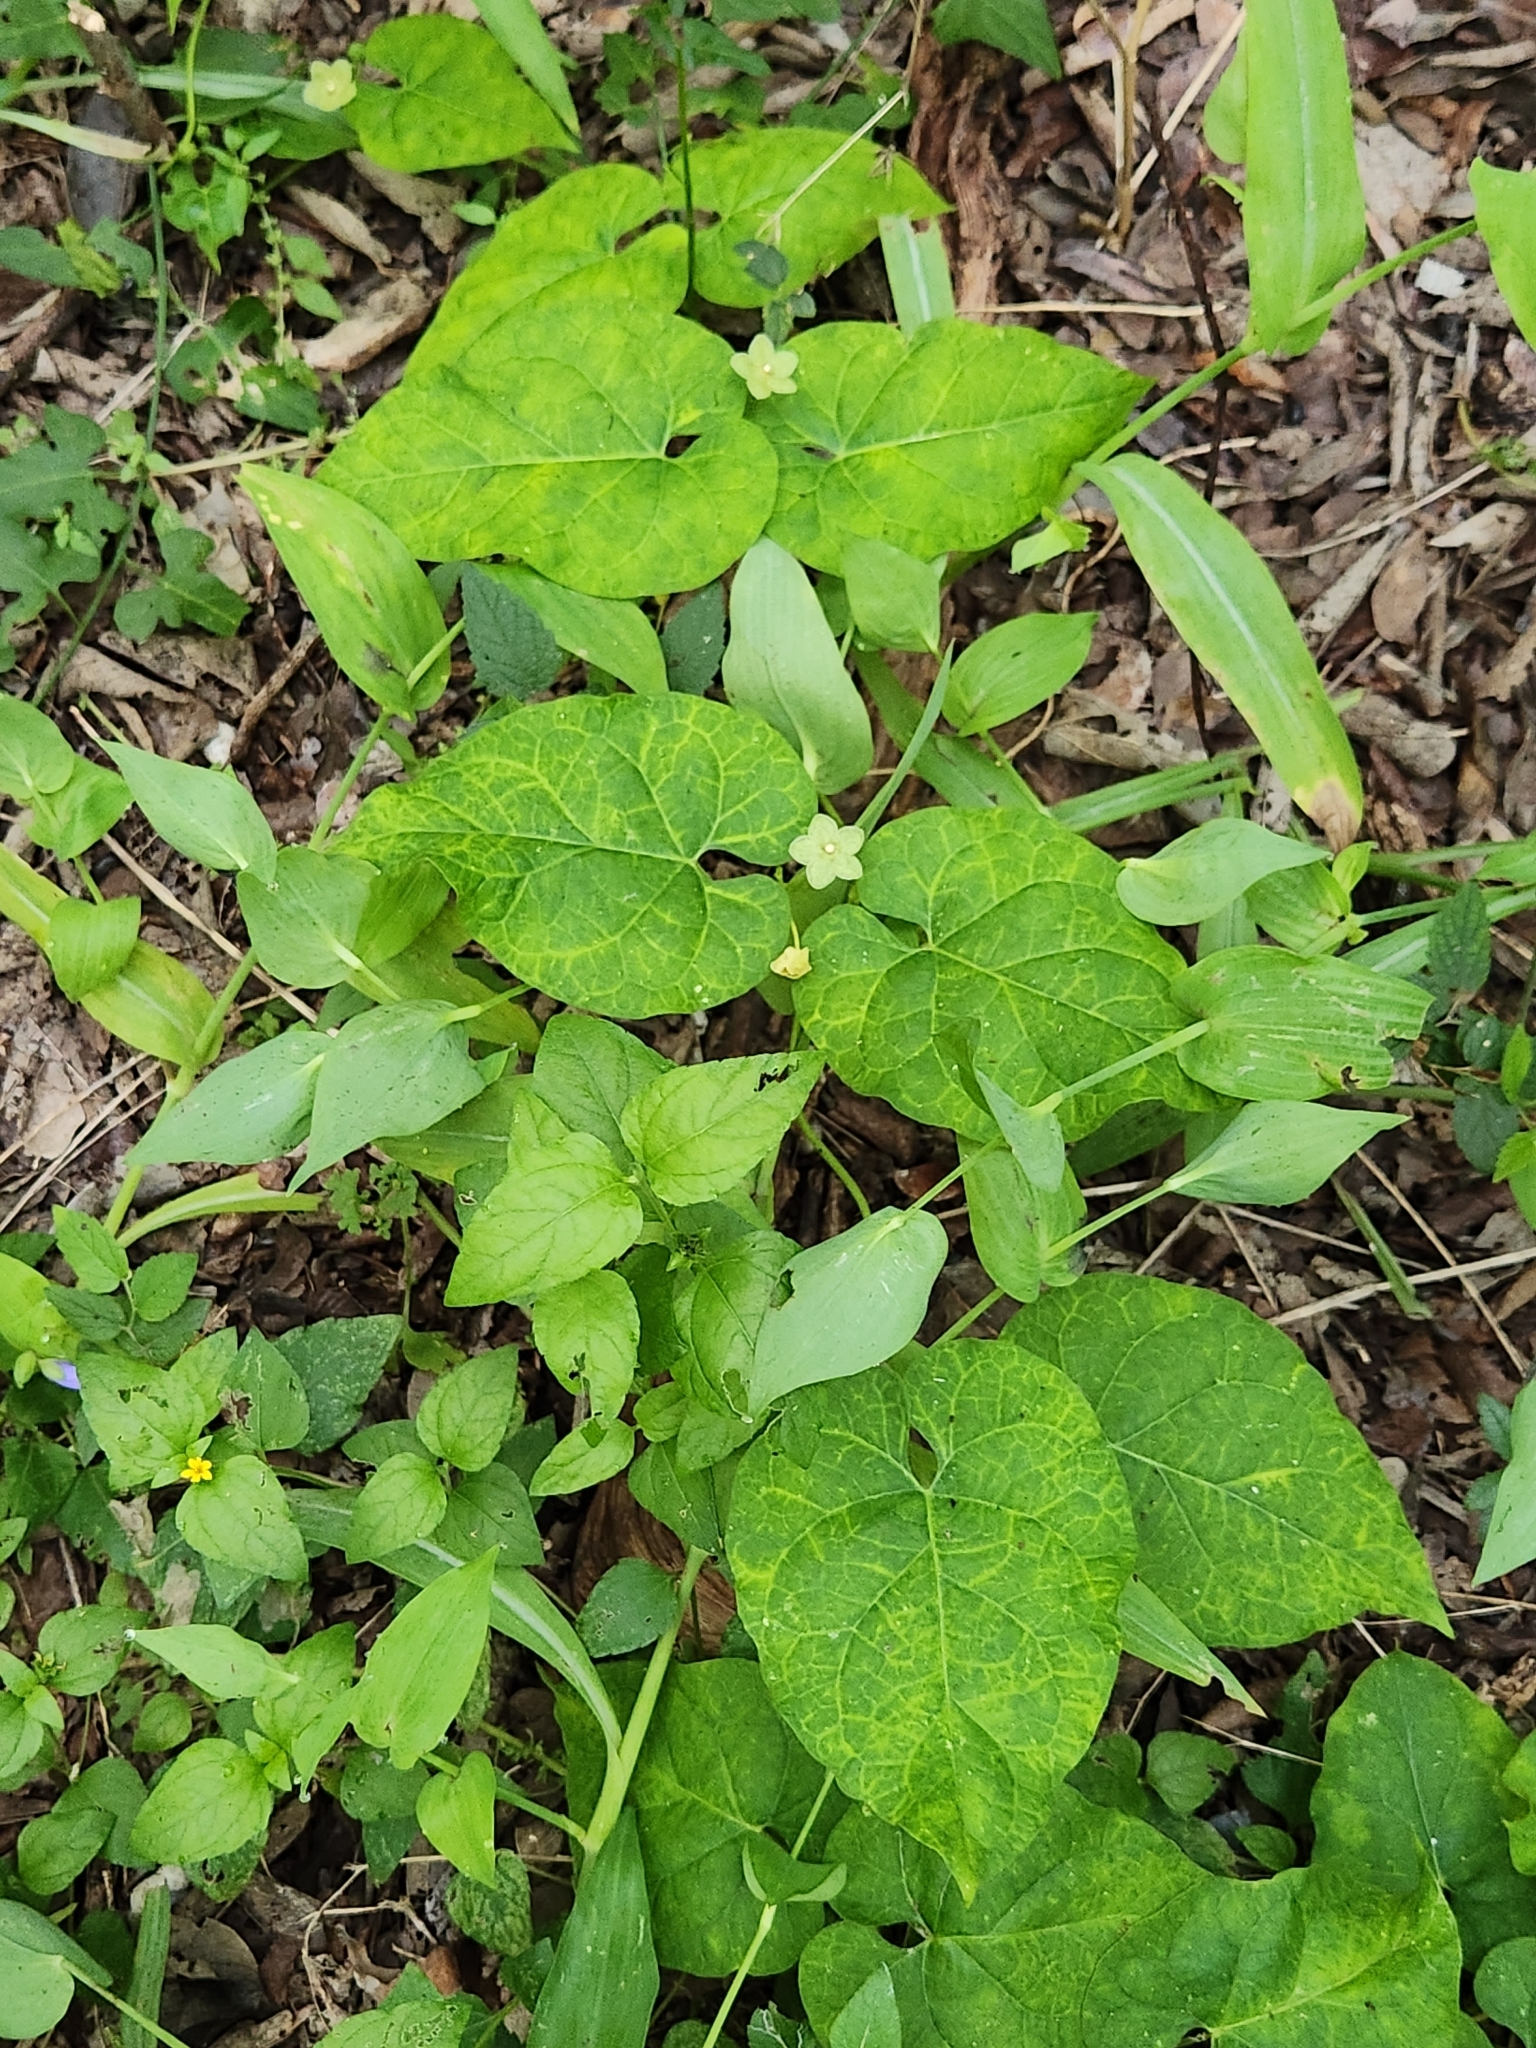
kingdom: Plantae
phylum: Tracheophyta
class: Magnoliopsida
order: Gentianales
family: Apocynaceae
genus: Dictyanthus
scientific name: Dictyanthus reticulatus
